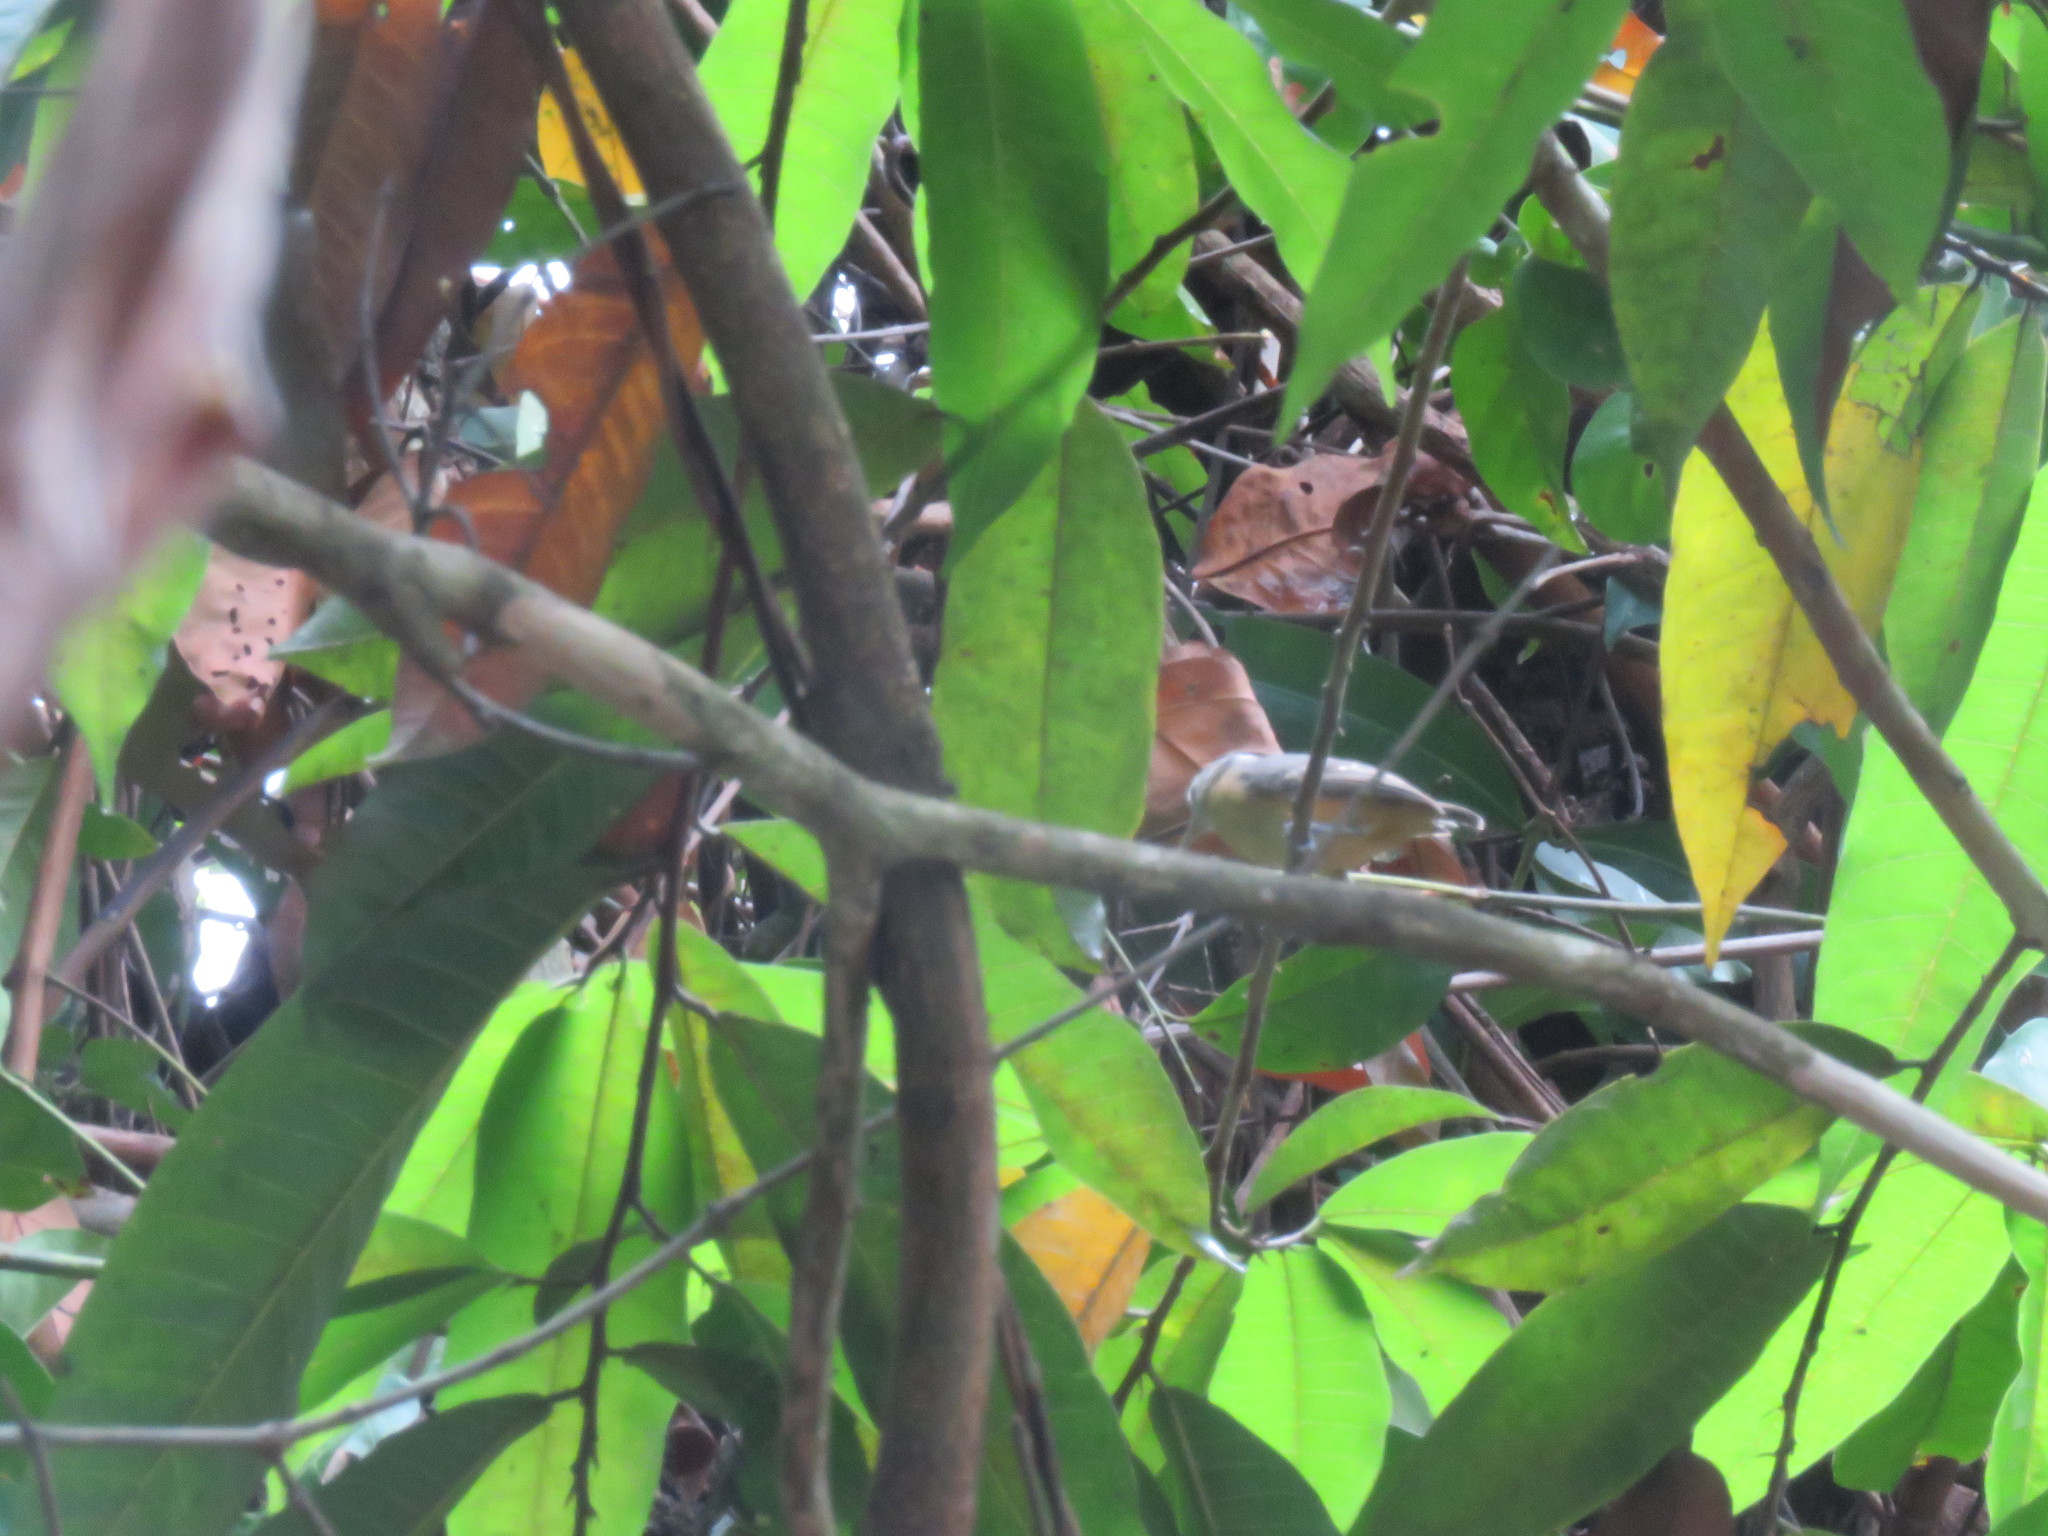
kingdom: Animalia
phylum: Chordata
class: Aves
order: Passeriformes
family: Thamnophilidae
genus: Myrmotherula
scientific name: Myrmotherula assimilis
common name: Leaden antwren
